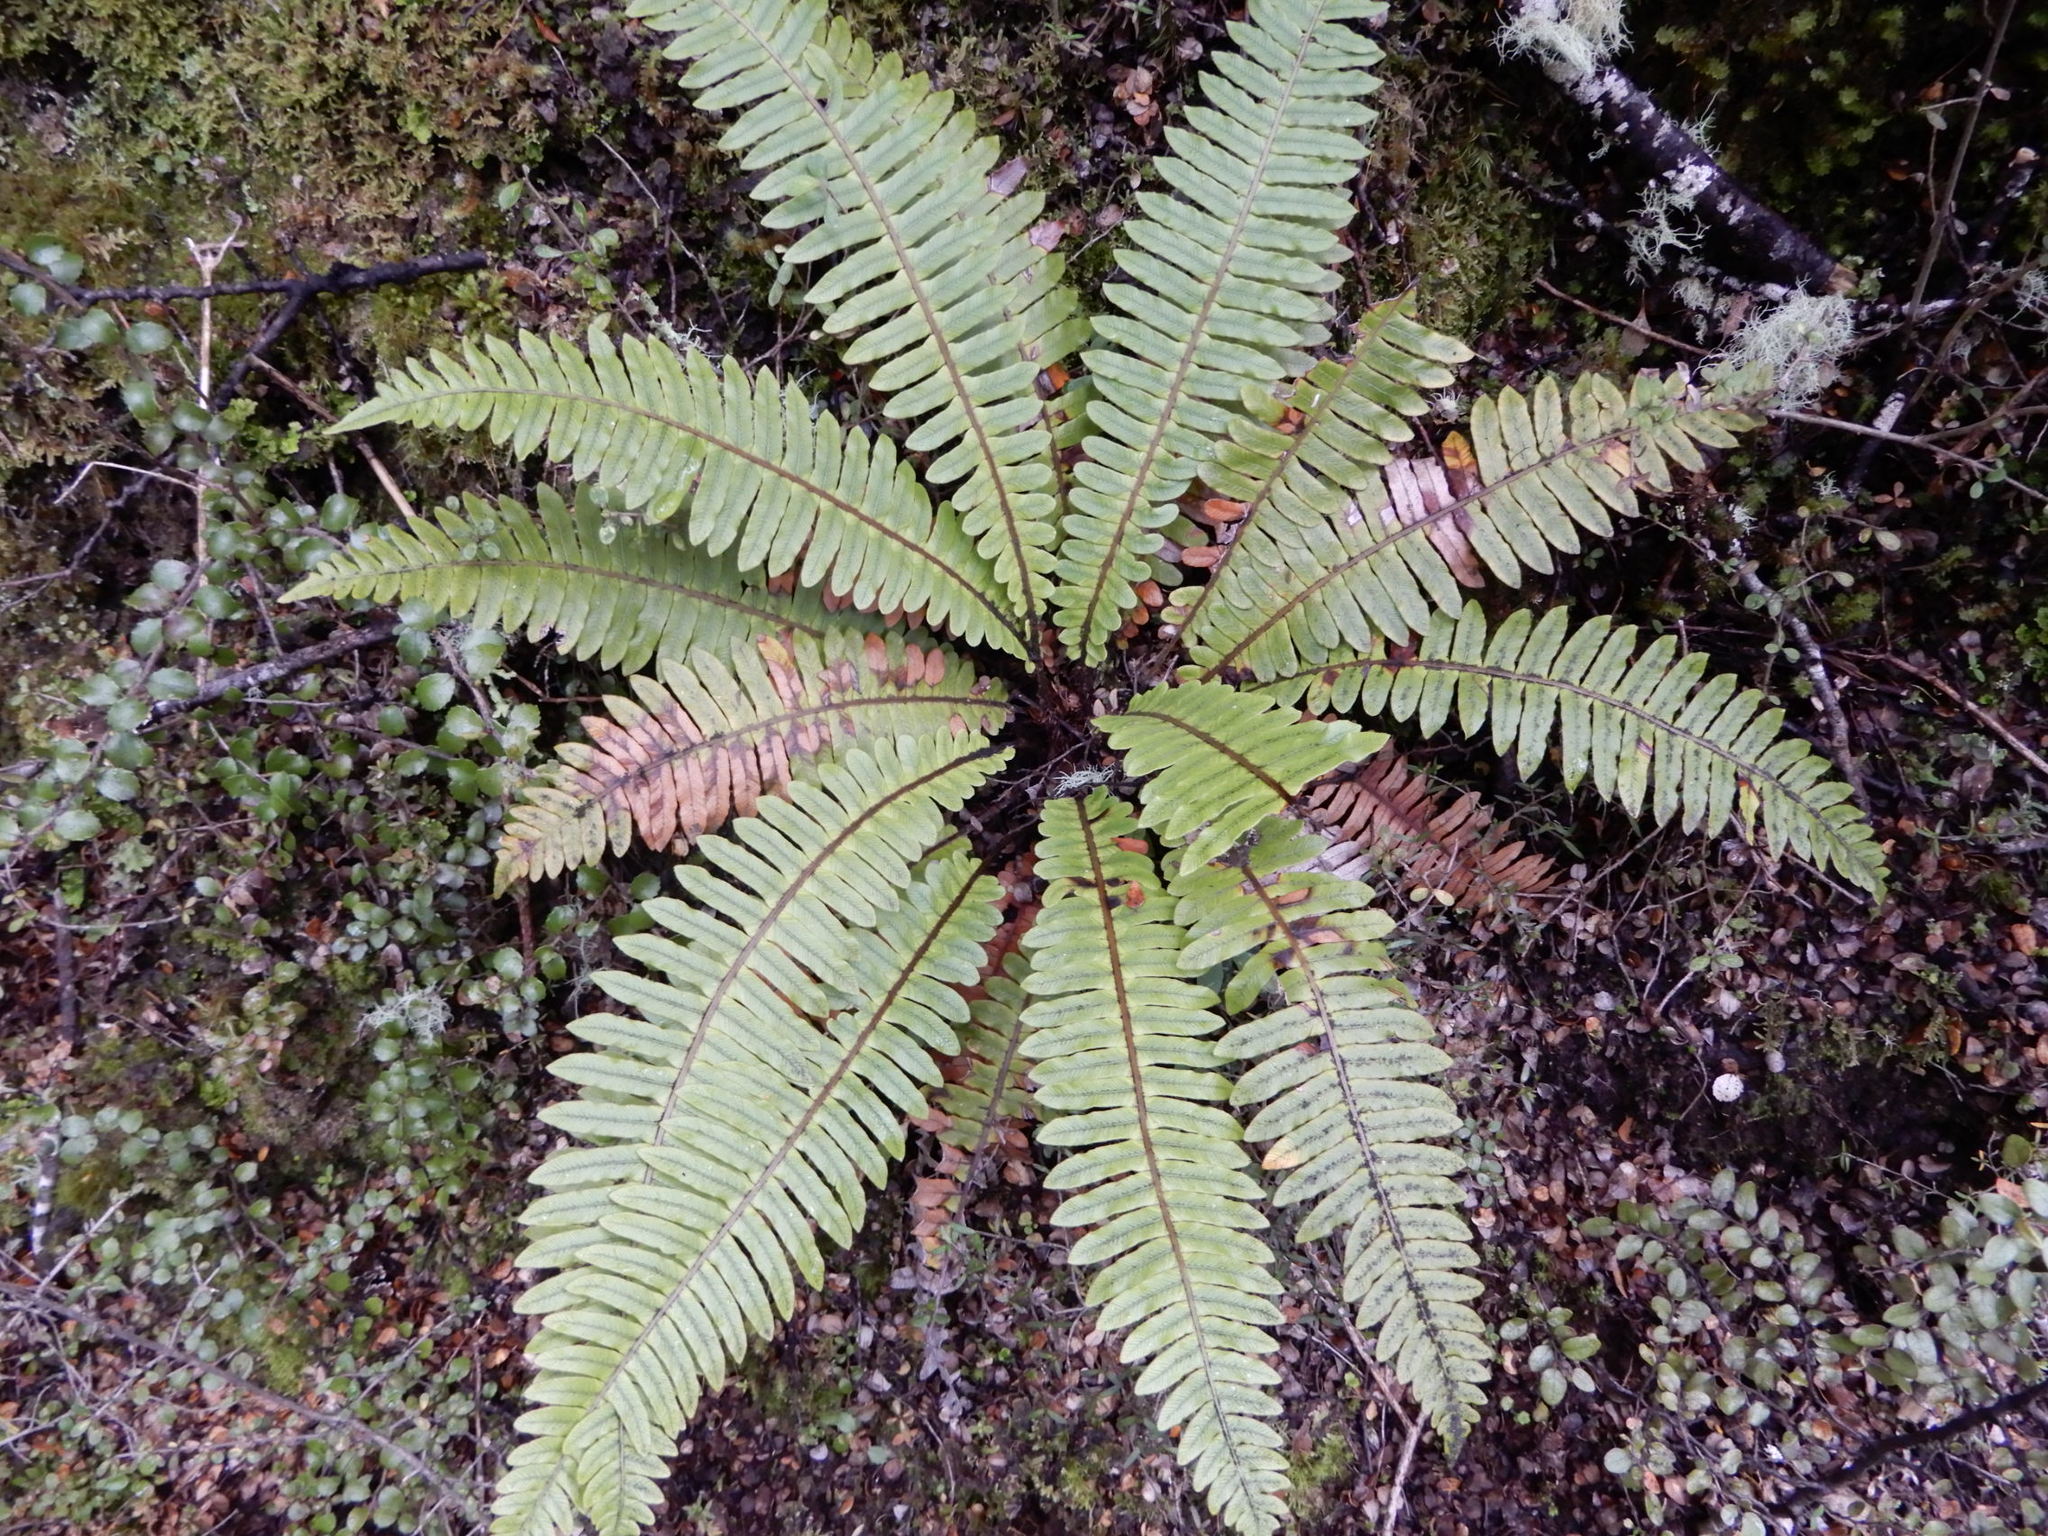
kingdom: Plantae
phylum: Tracheophyta
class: Polypodiopsida
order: Polypodiales
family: Blechnaceae
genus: Lomaria
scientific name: Lomaria discolor
